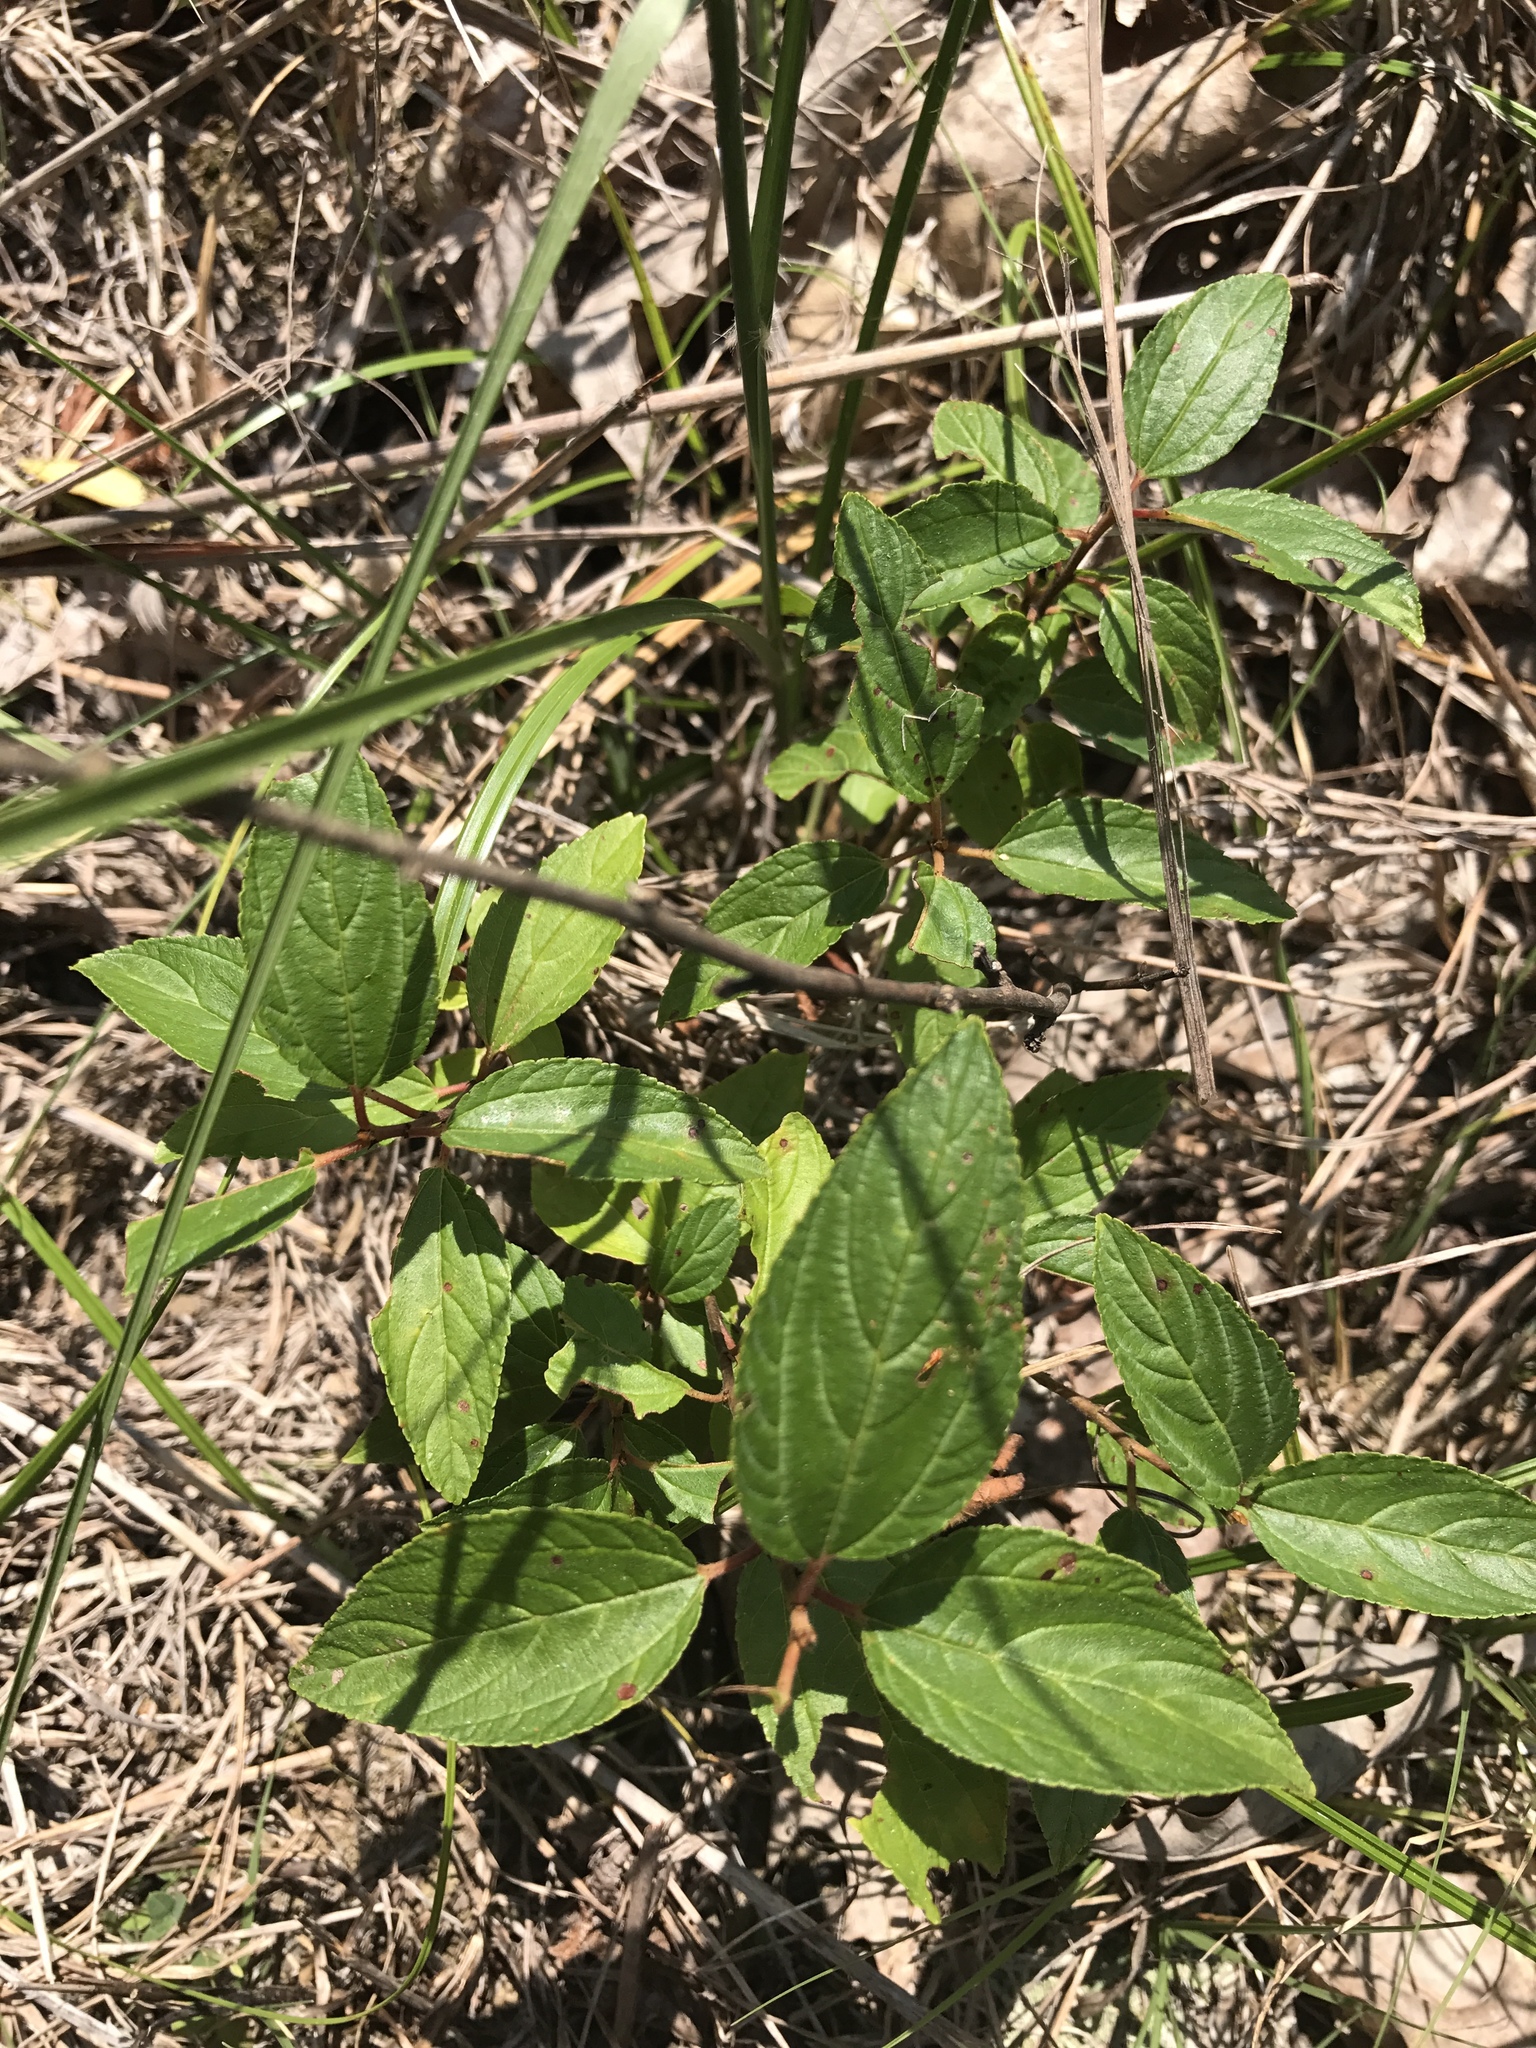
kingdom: Plantae
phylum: Tracheophyta
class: Magnoliopsida
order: Rosales
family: Rhamnaceae
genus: Ceanothus
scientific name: Ceanothus americanus
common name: Redroot
